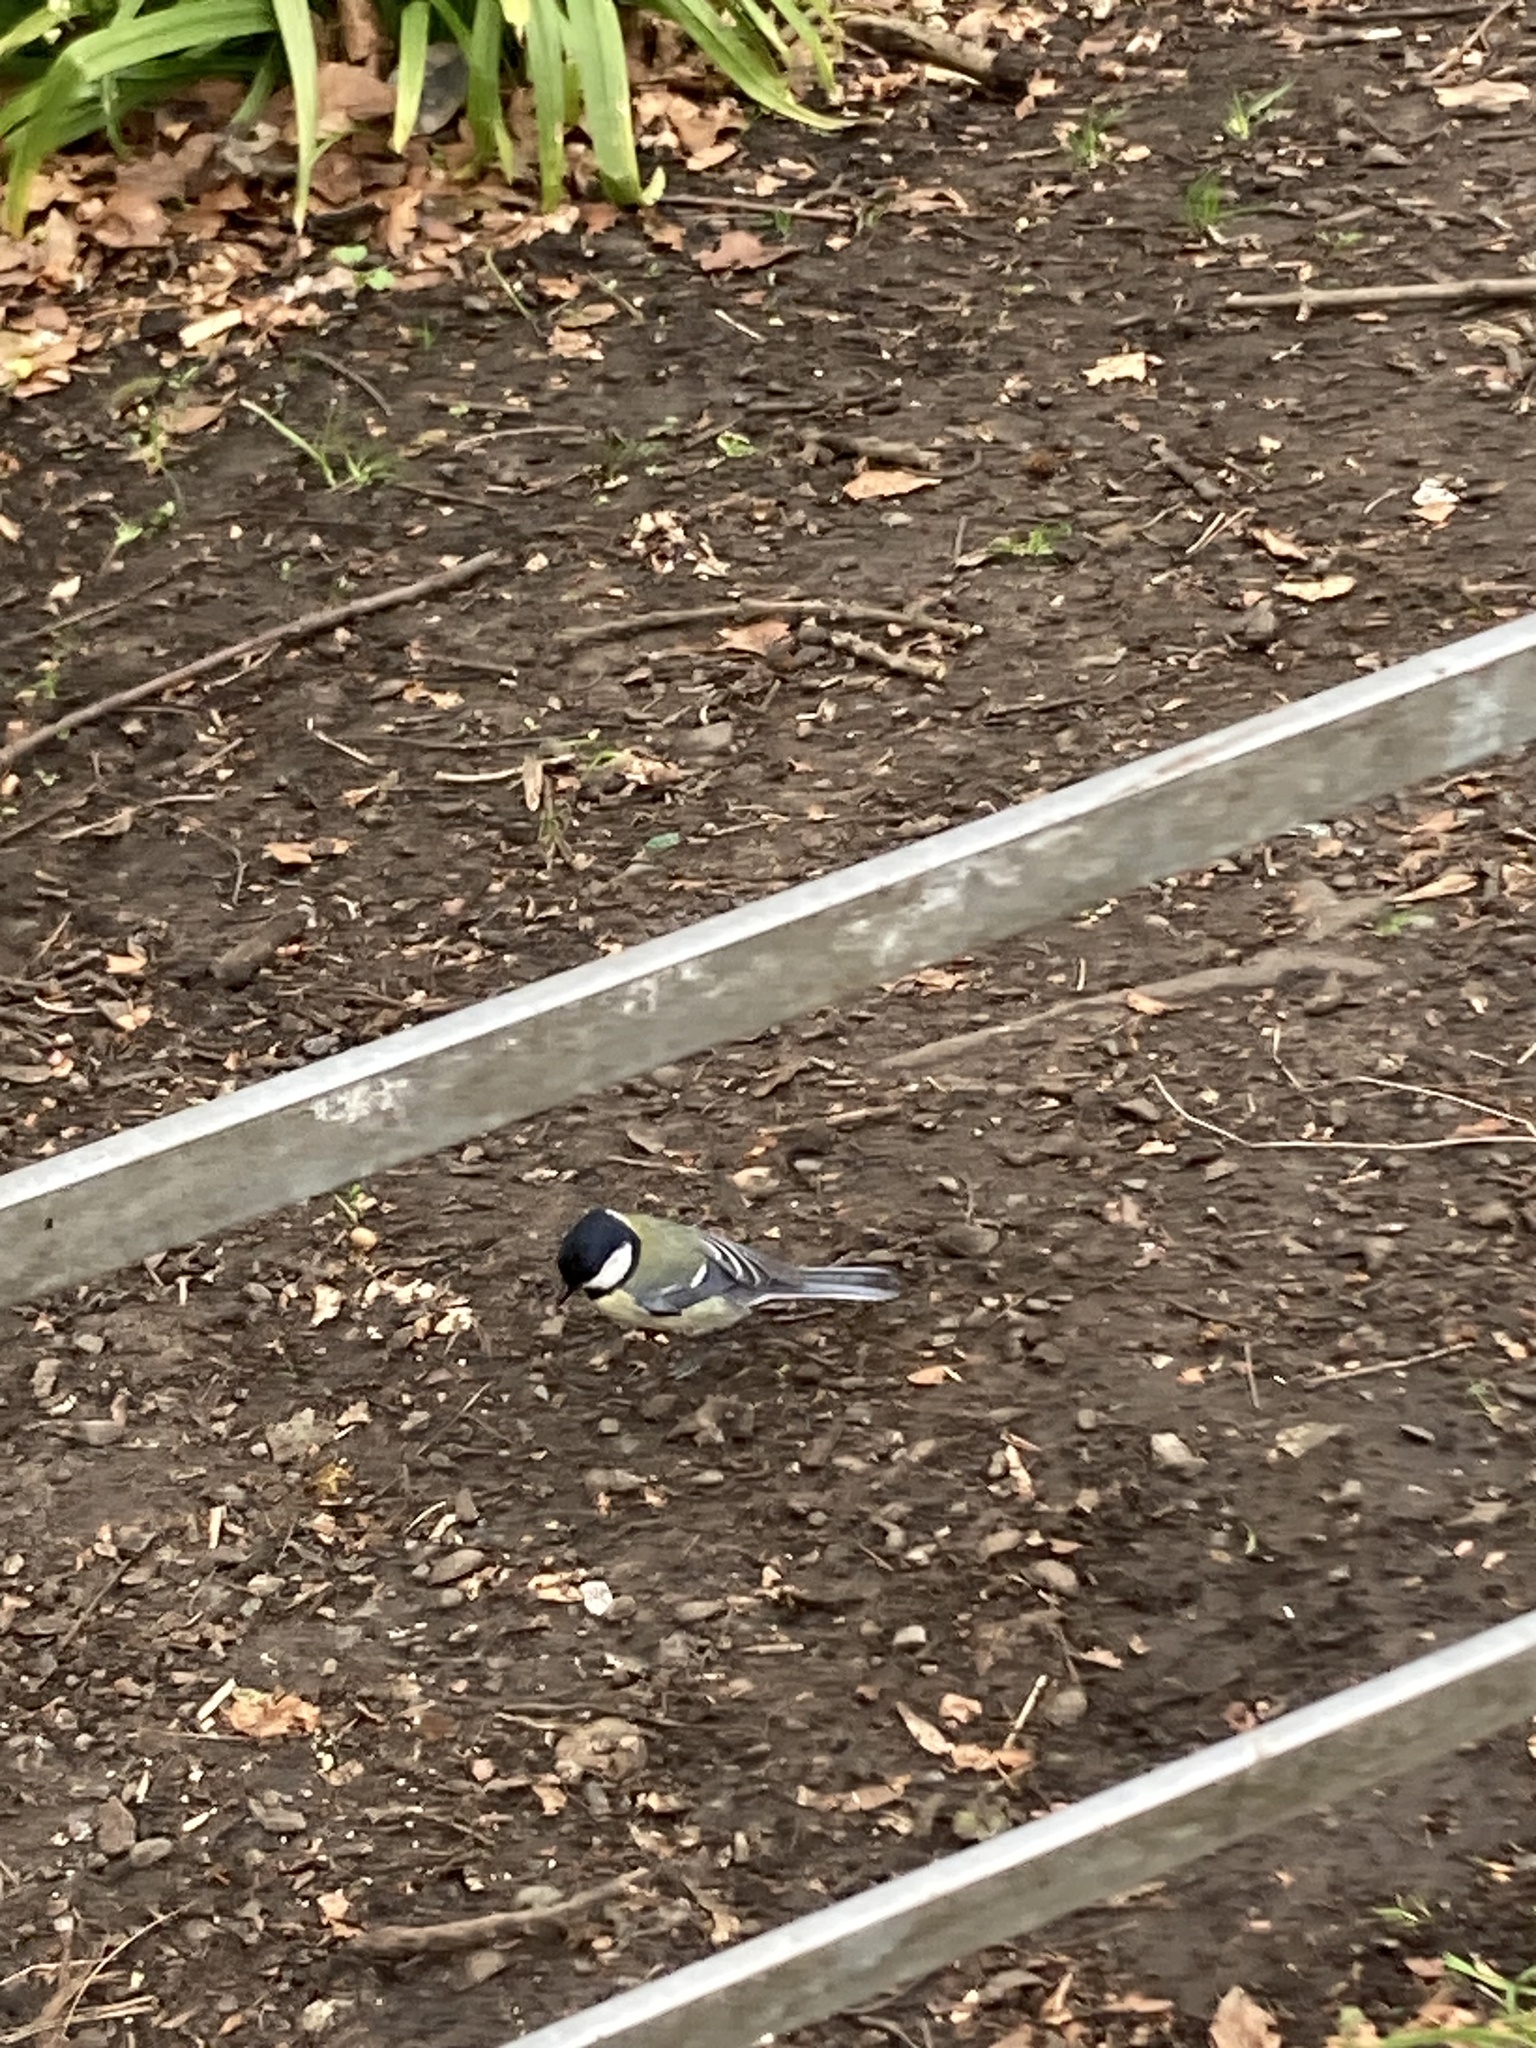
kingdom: Animalia
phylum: Chordata
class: Aves
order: Passeriformes
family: Paridae
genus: Parus
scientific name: Parus major
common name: Great tit
